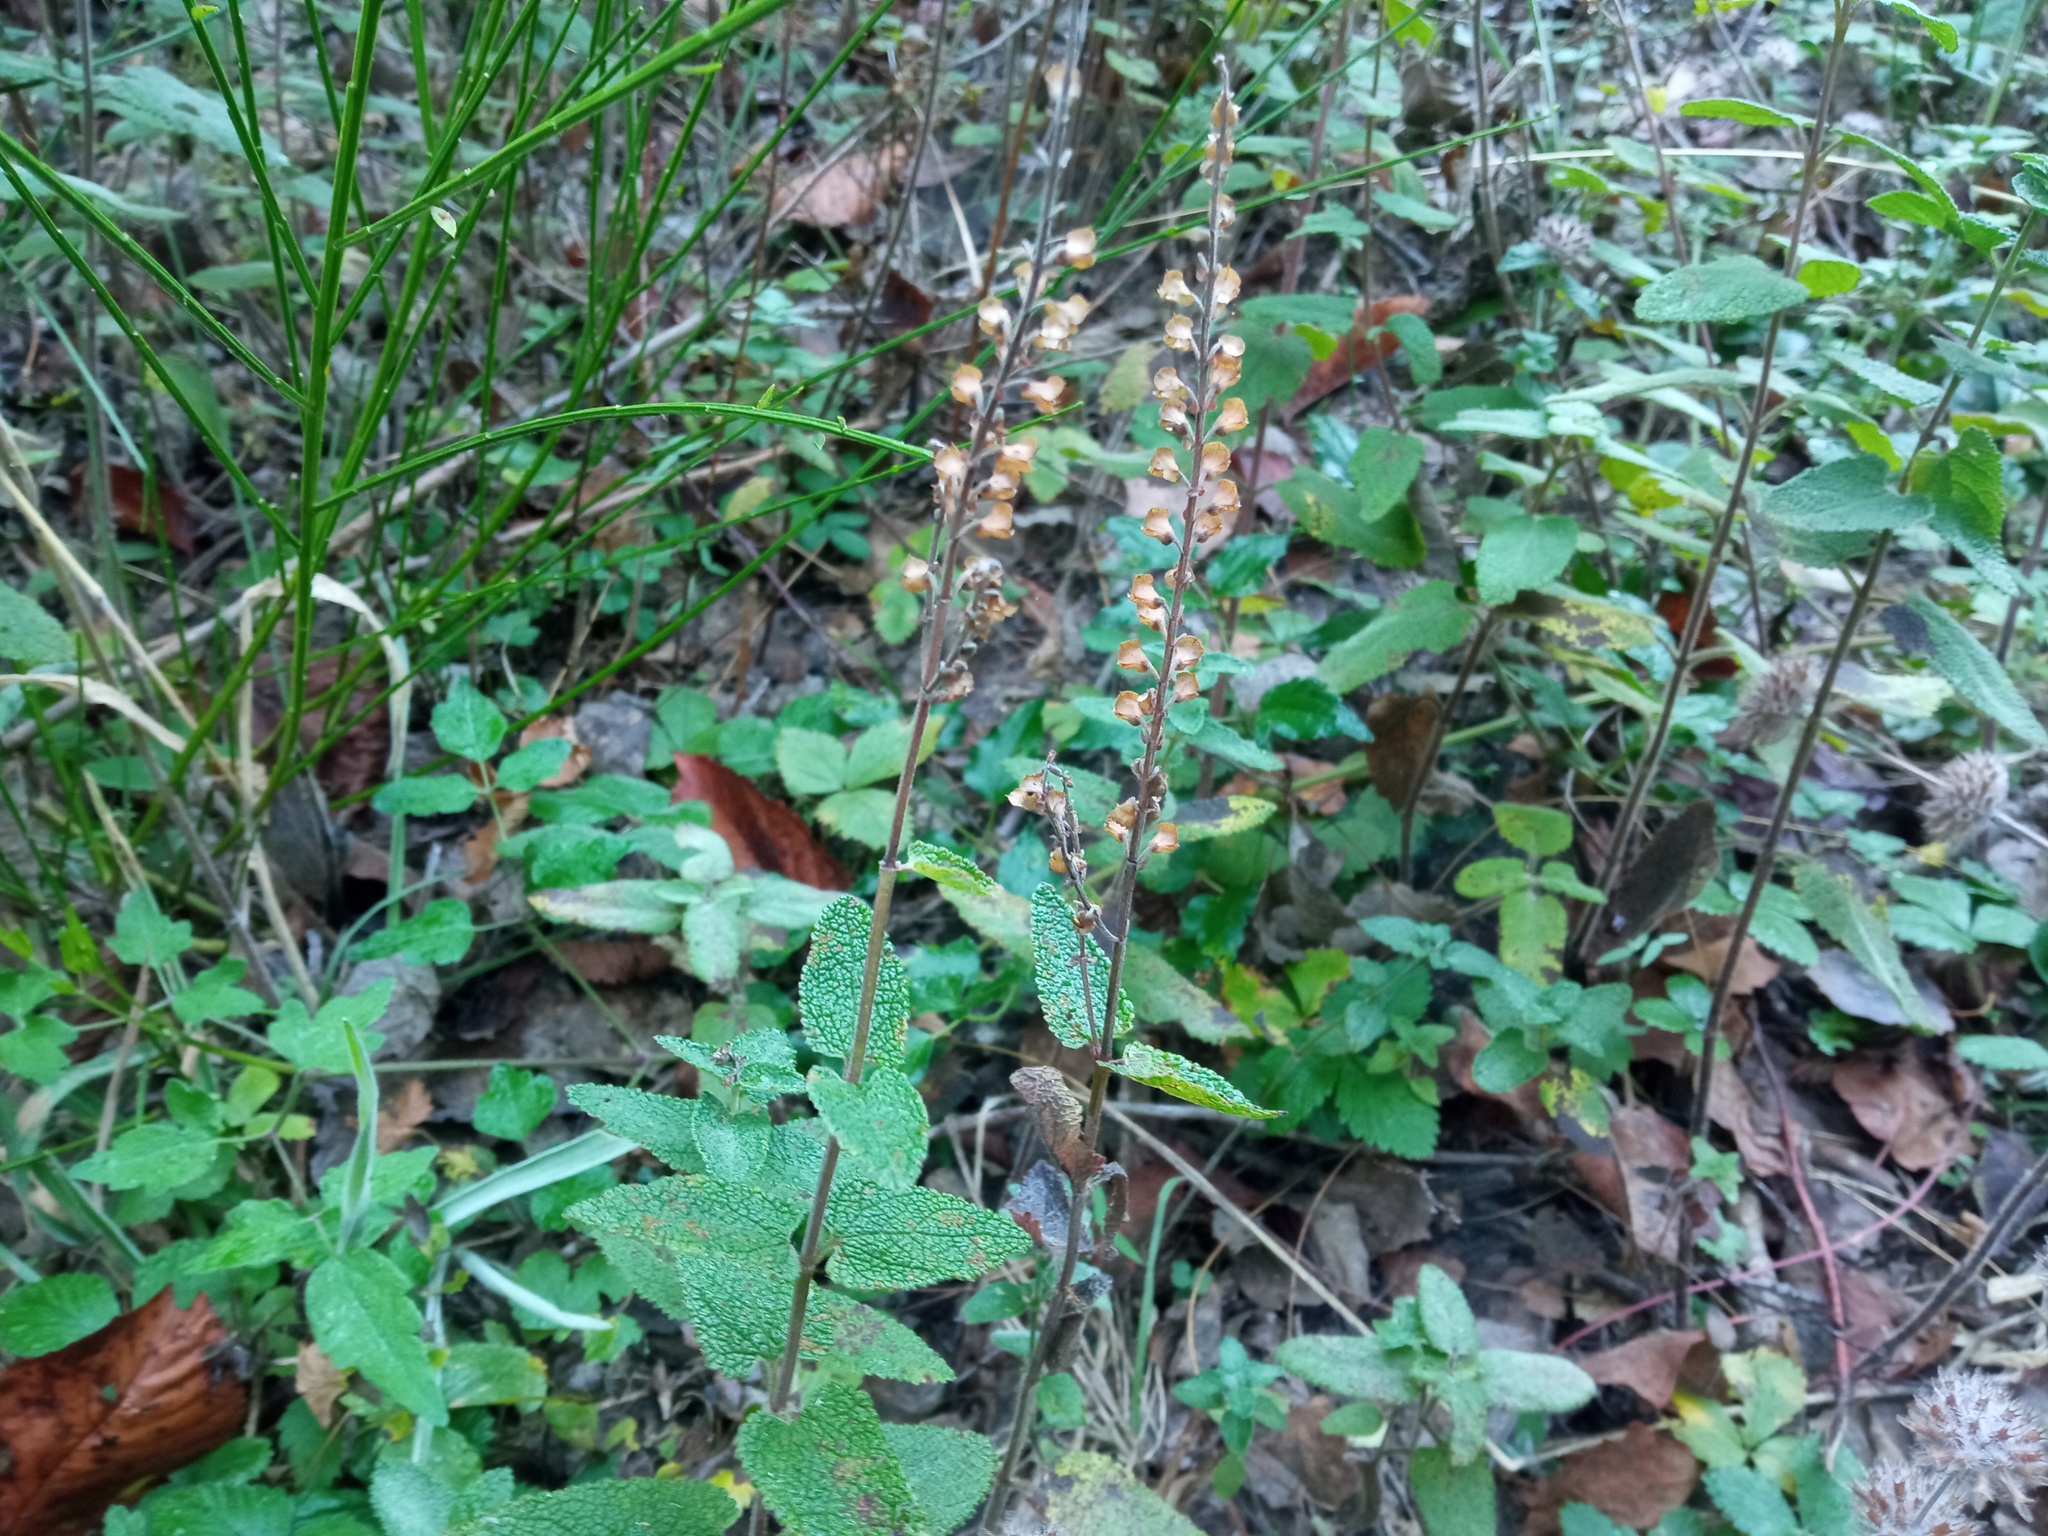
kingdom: Plantae
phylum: Tracheophyta
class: Magnoliopsida
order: Lamiales
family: Lamiaceae
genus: Teucrium
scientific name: Teucrium scorodonia
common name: Woodland germander
